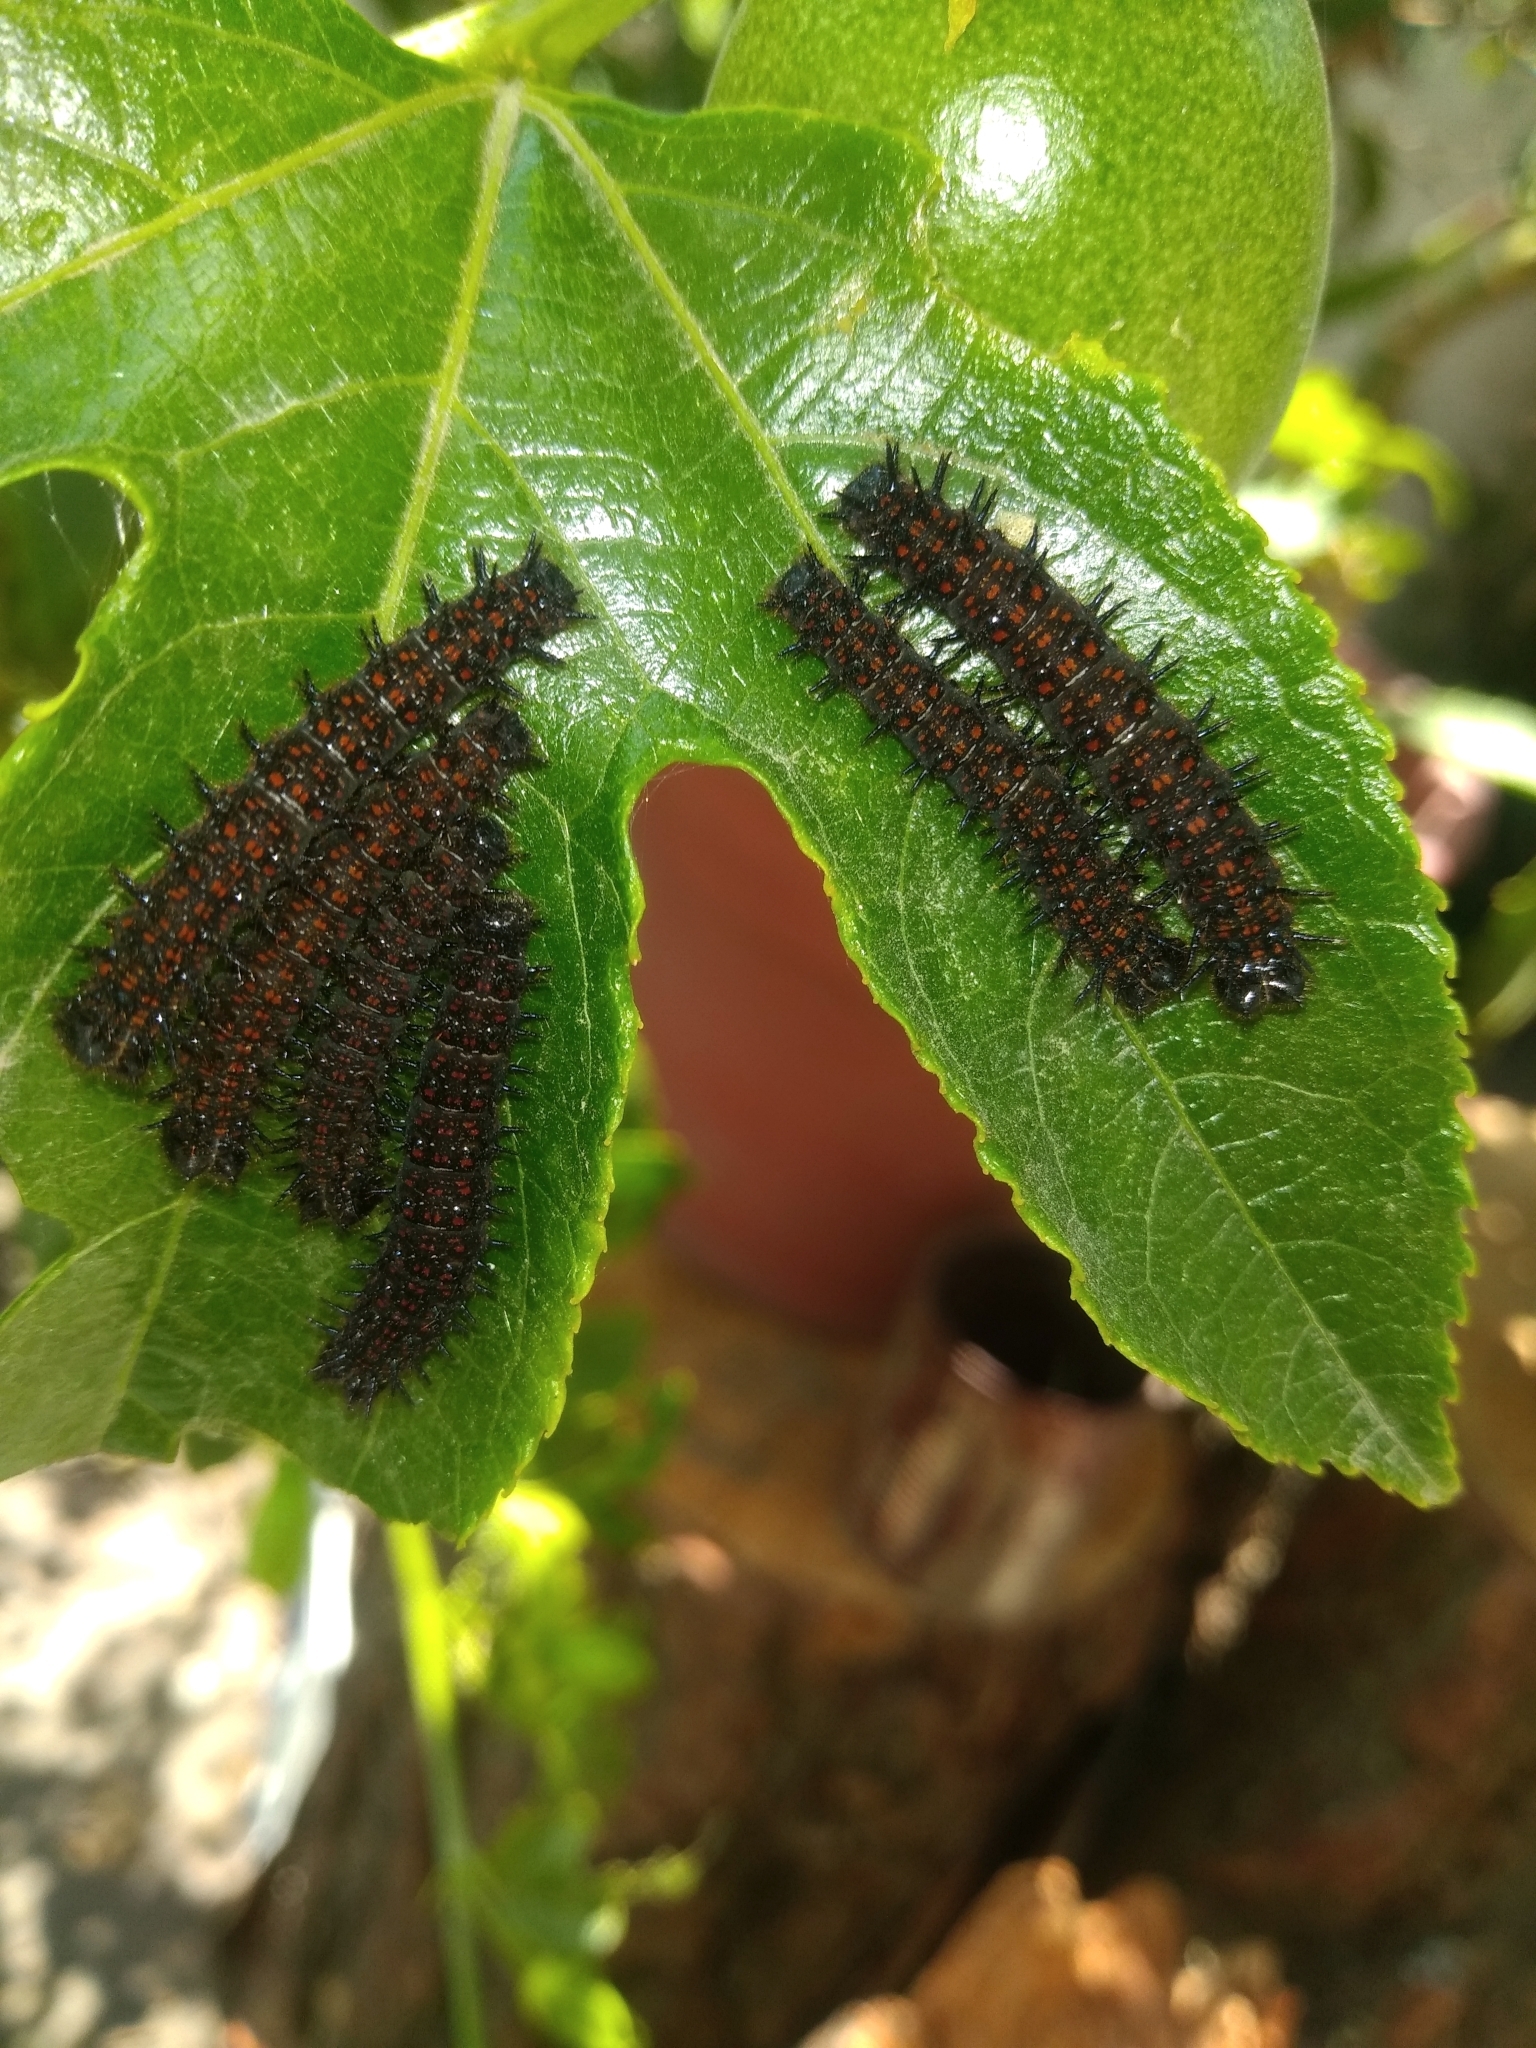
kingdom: Animalia
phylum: Arthropoda
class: Insecta
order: Lepidoptera
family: Nymphalidae
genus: Dione
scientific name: Dione juno
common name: Juno silverspot
